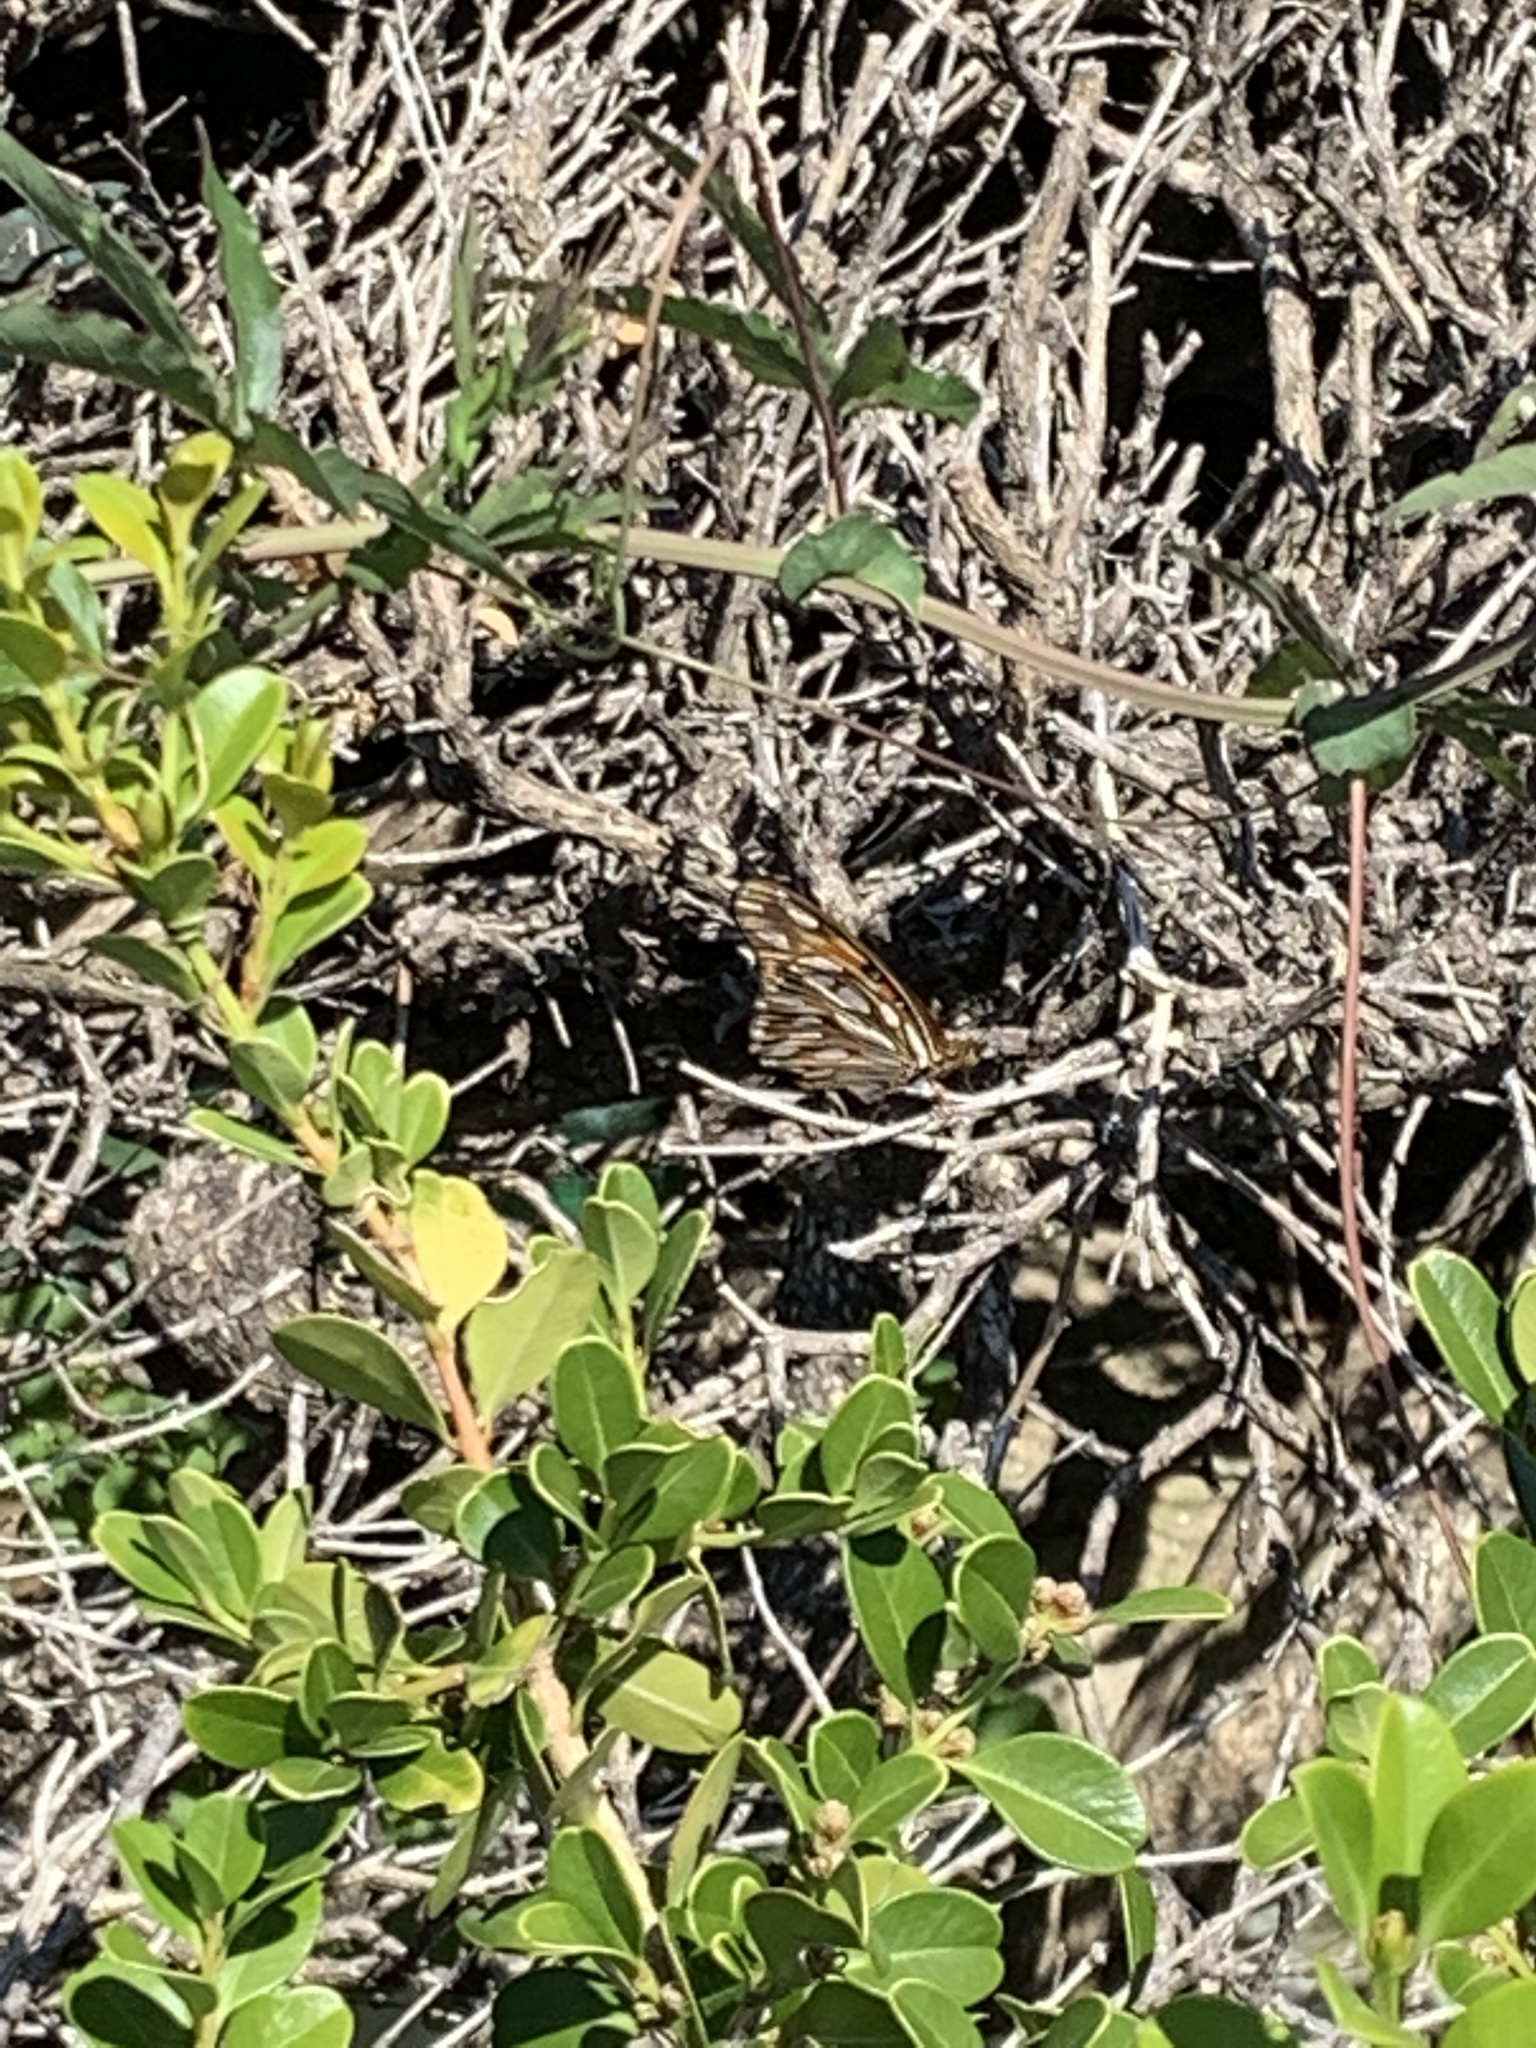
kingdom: Animalia
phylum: Arthropoda
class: Insecta
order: Lepidoptera
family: Nymphalidae
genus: Dione
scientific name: Dione vanillae
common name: Gulf fritillary
